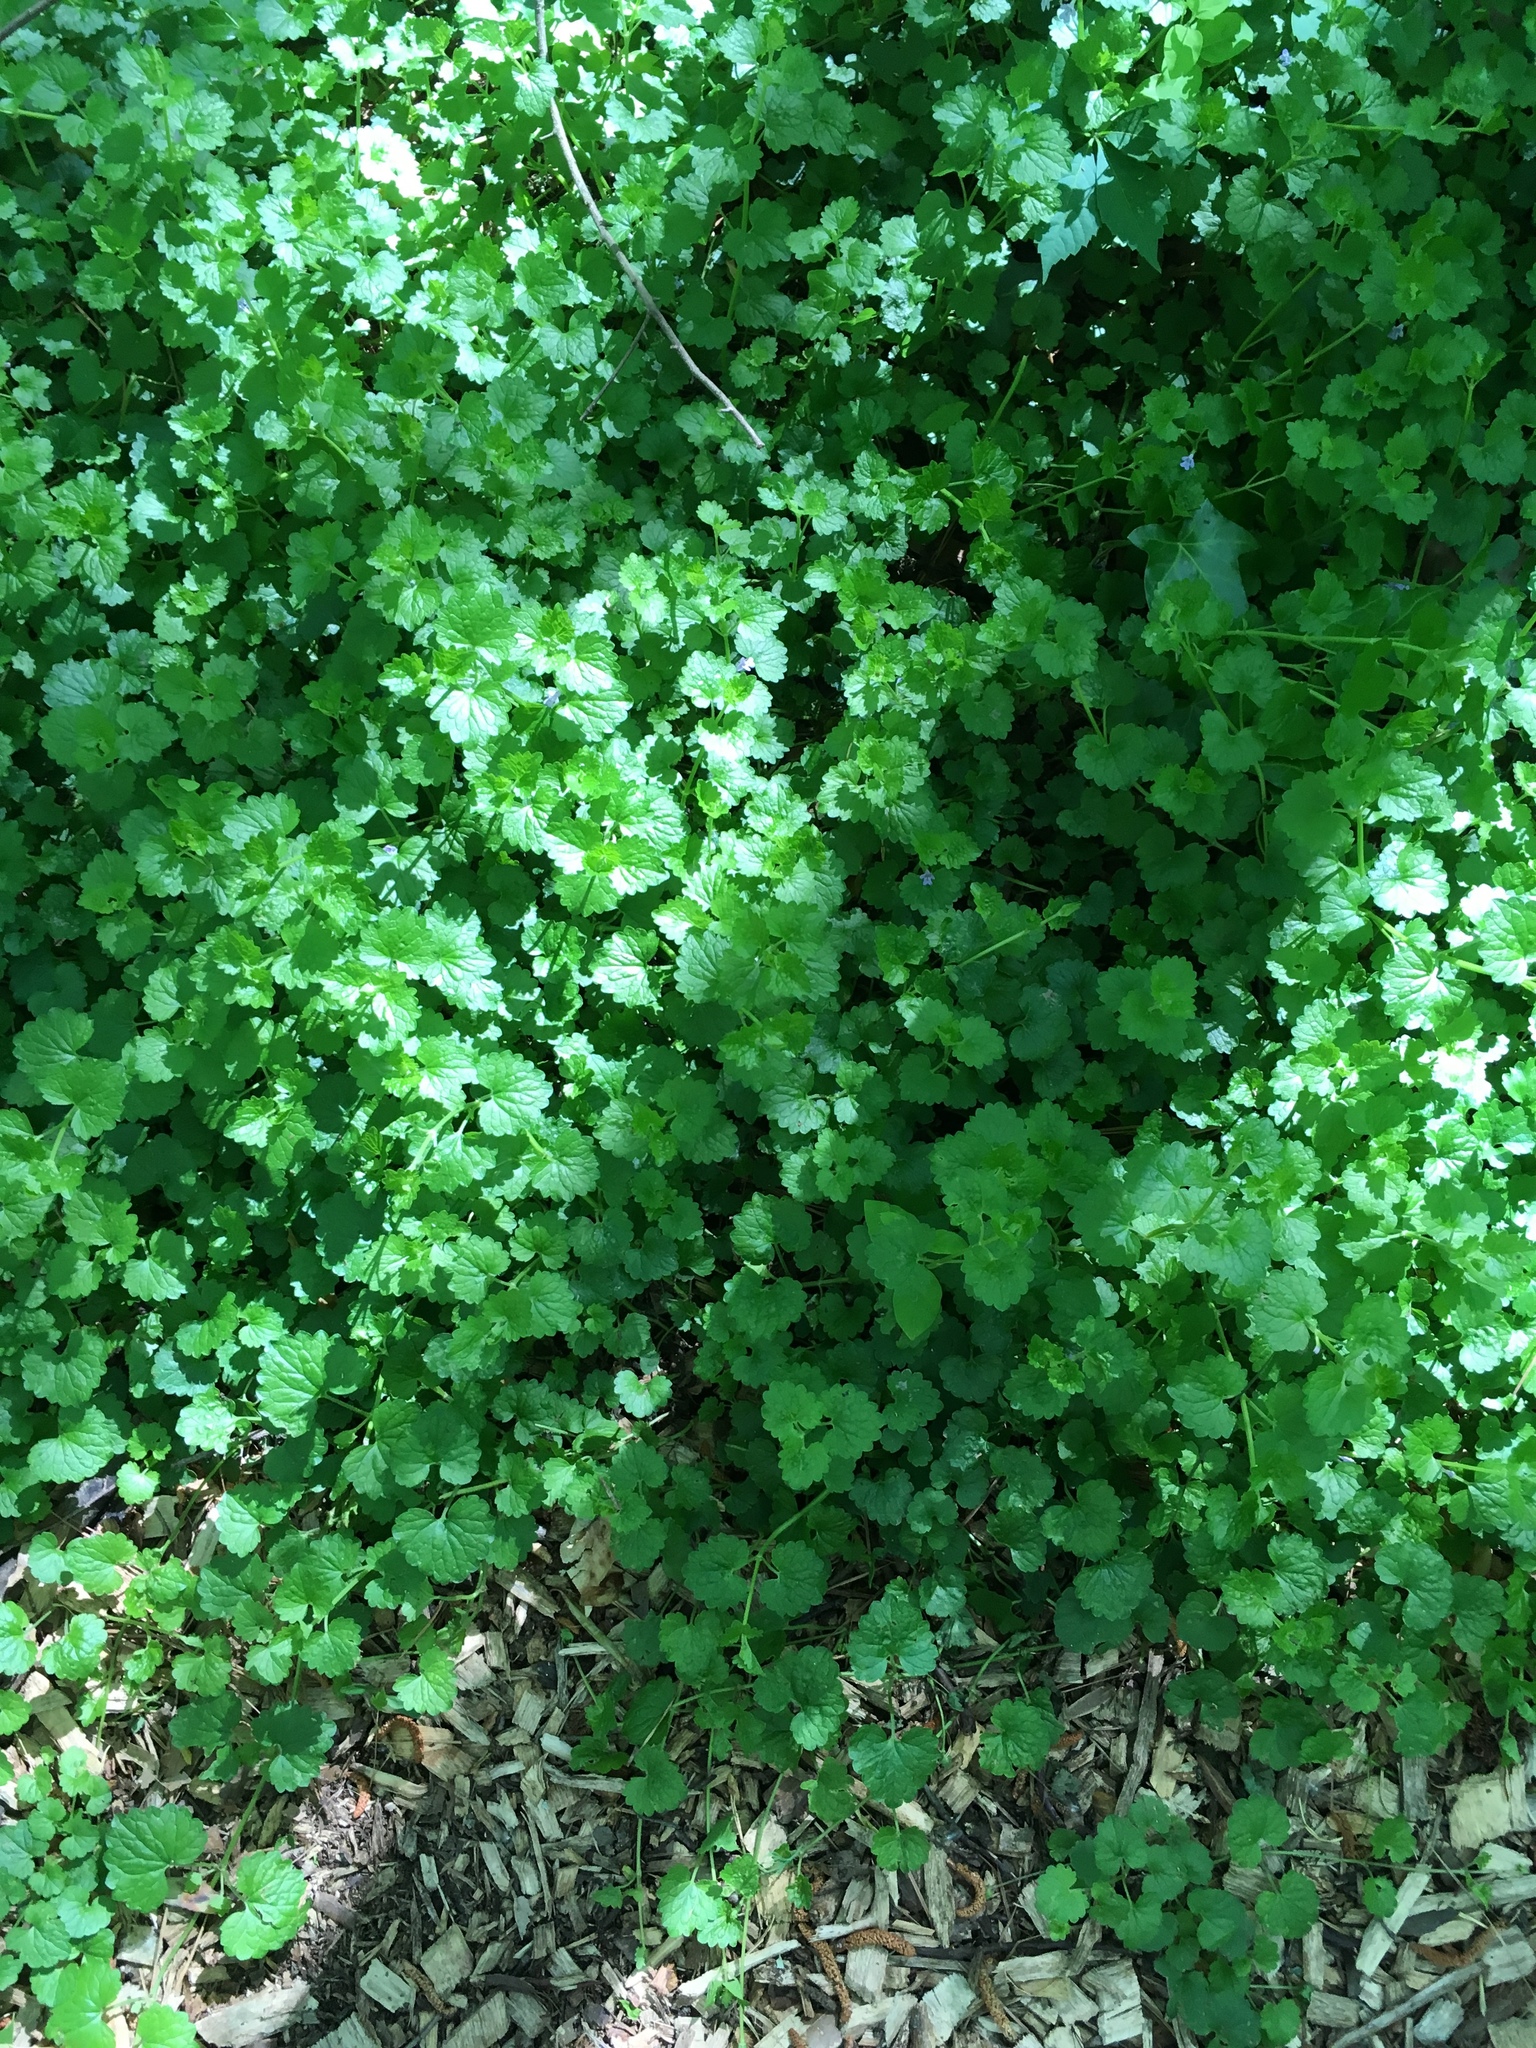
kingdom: Plantae
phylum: Tracheophyta
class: Magnoliopsida
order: Lamiales
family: Lamiaceae
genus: Glechoma
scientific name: Glechoma hederacea
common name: Ground ivy
